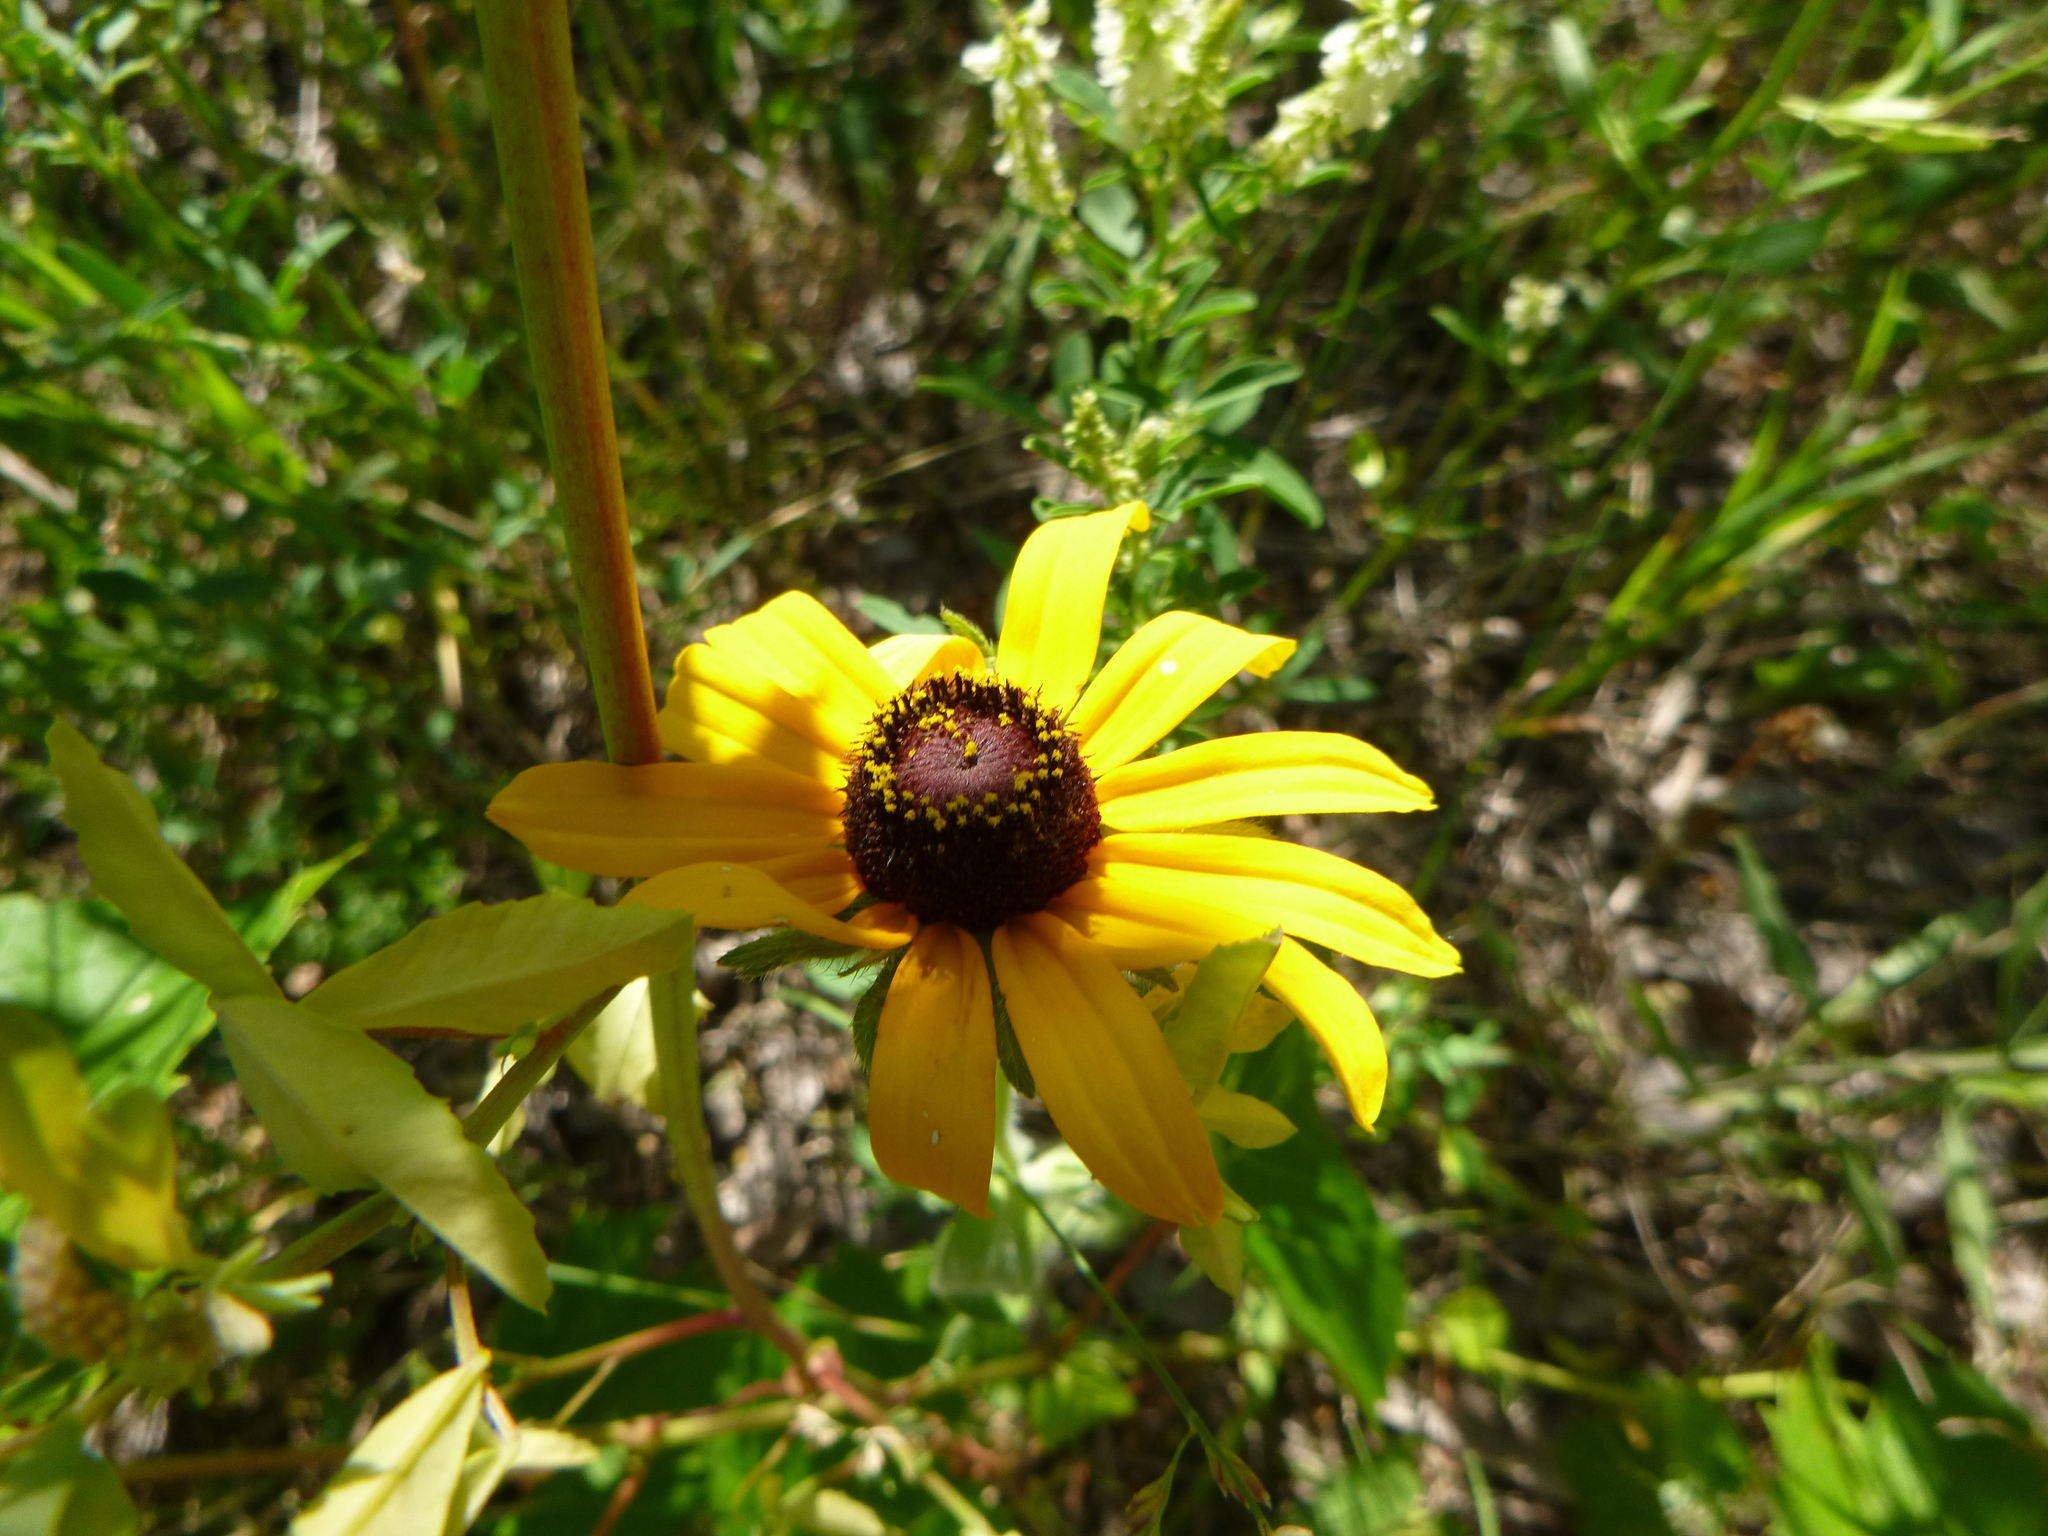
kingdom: Plantae
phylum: Tracheophyta
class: Magnoliopsida
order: Asterales
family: Asteraceae
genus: Rudbeckia
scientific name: Rudbeckia hirta
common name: Black-eyed-susan
